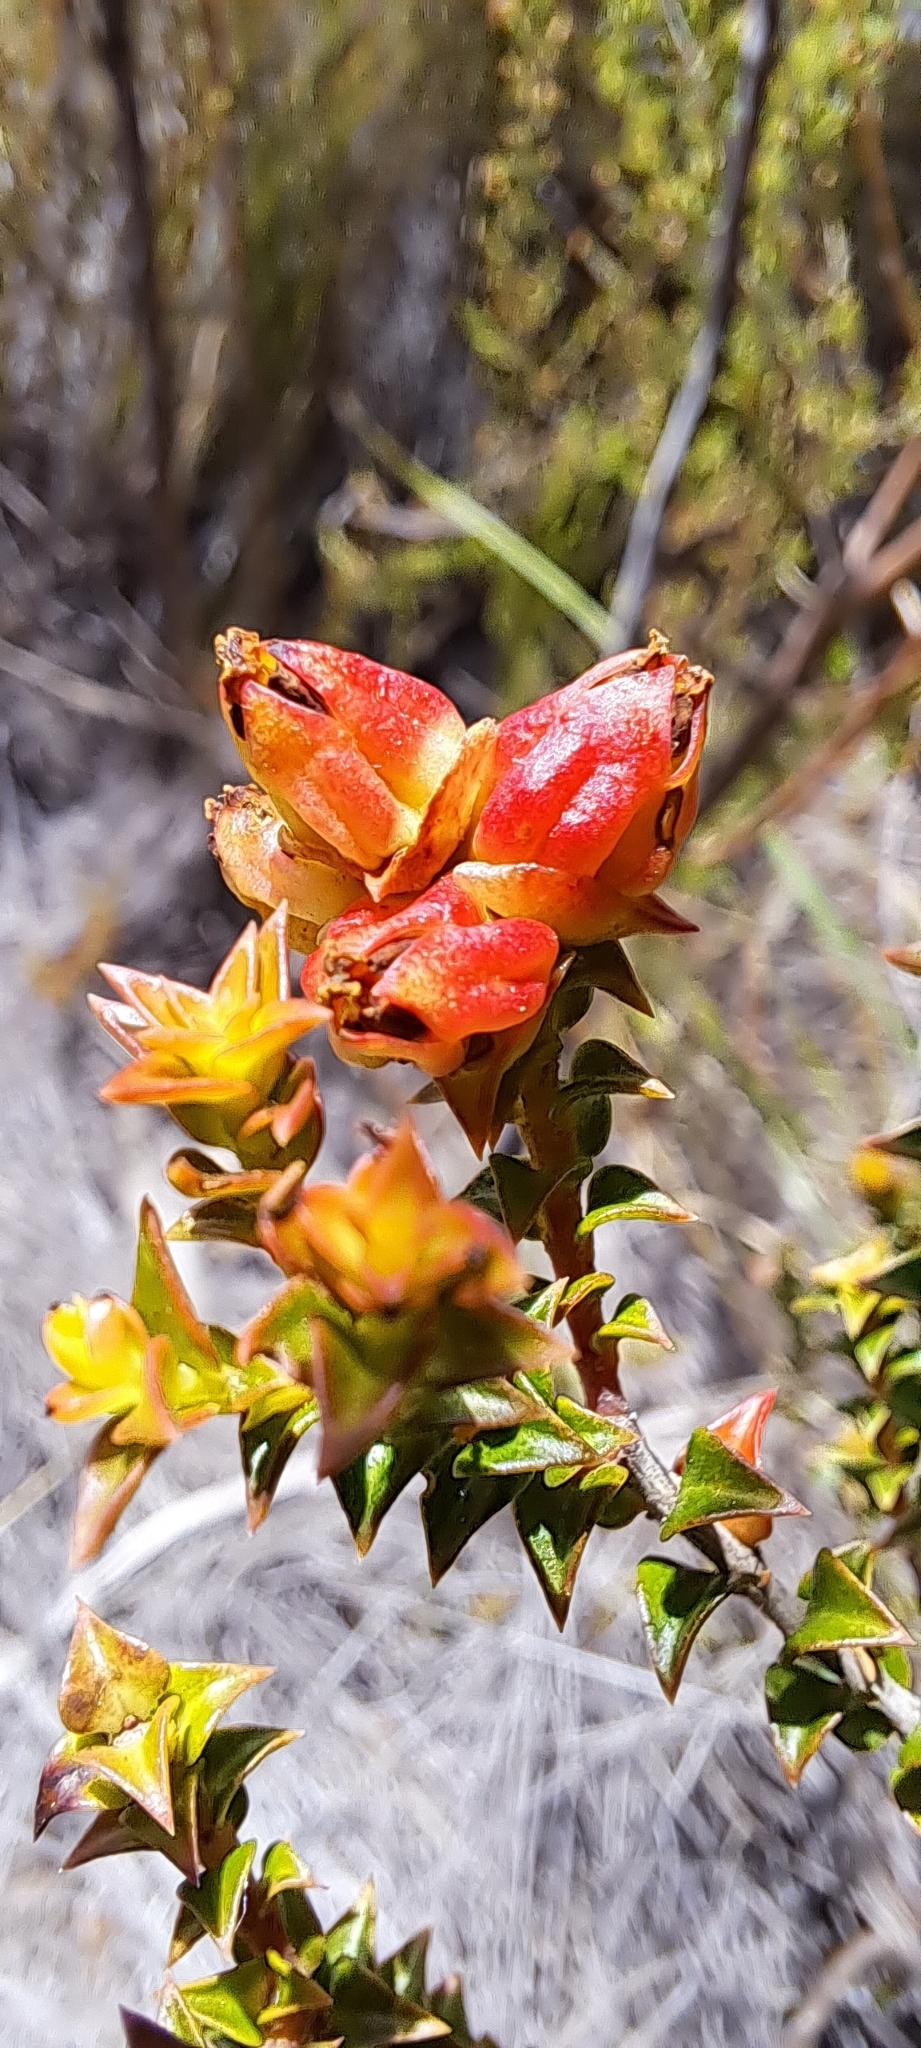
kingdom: Plantae
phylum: Tracheophyta
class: Magnoliopsida
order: Myrtales
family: Penaeaceae
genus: Penaea
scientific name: Penaea mucronata
